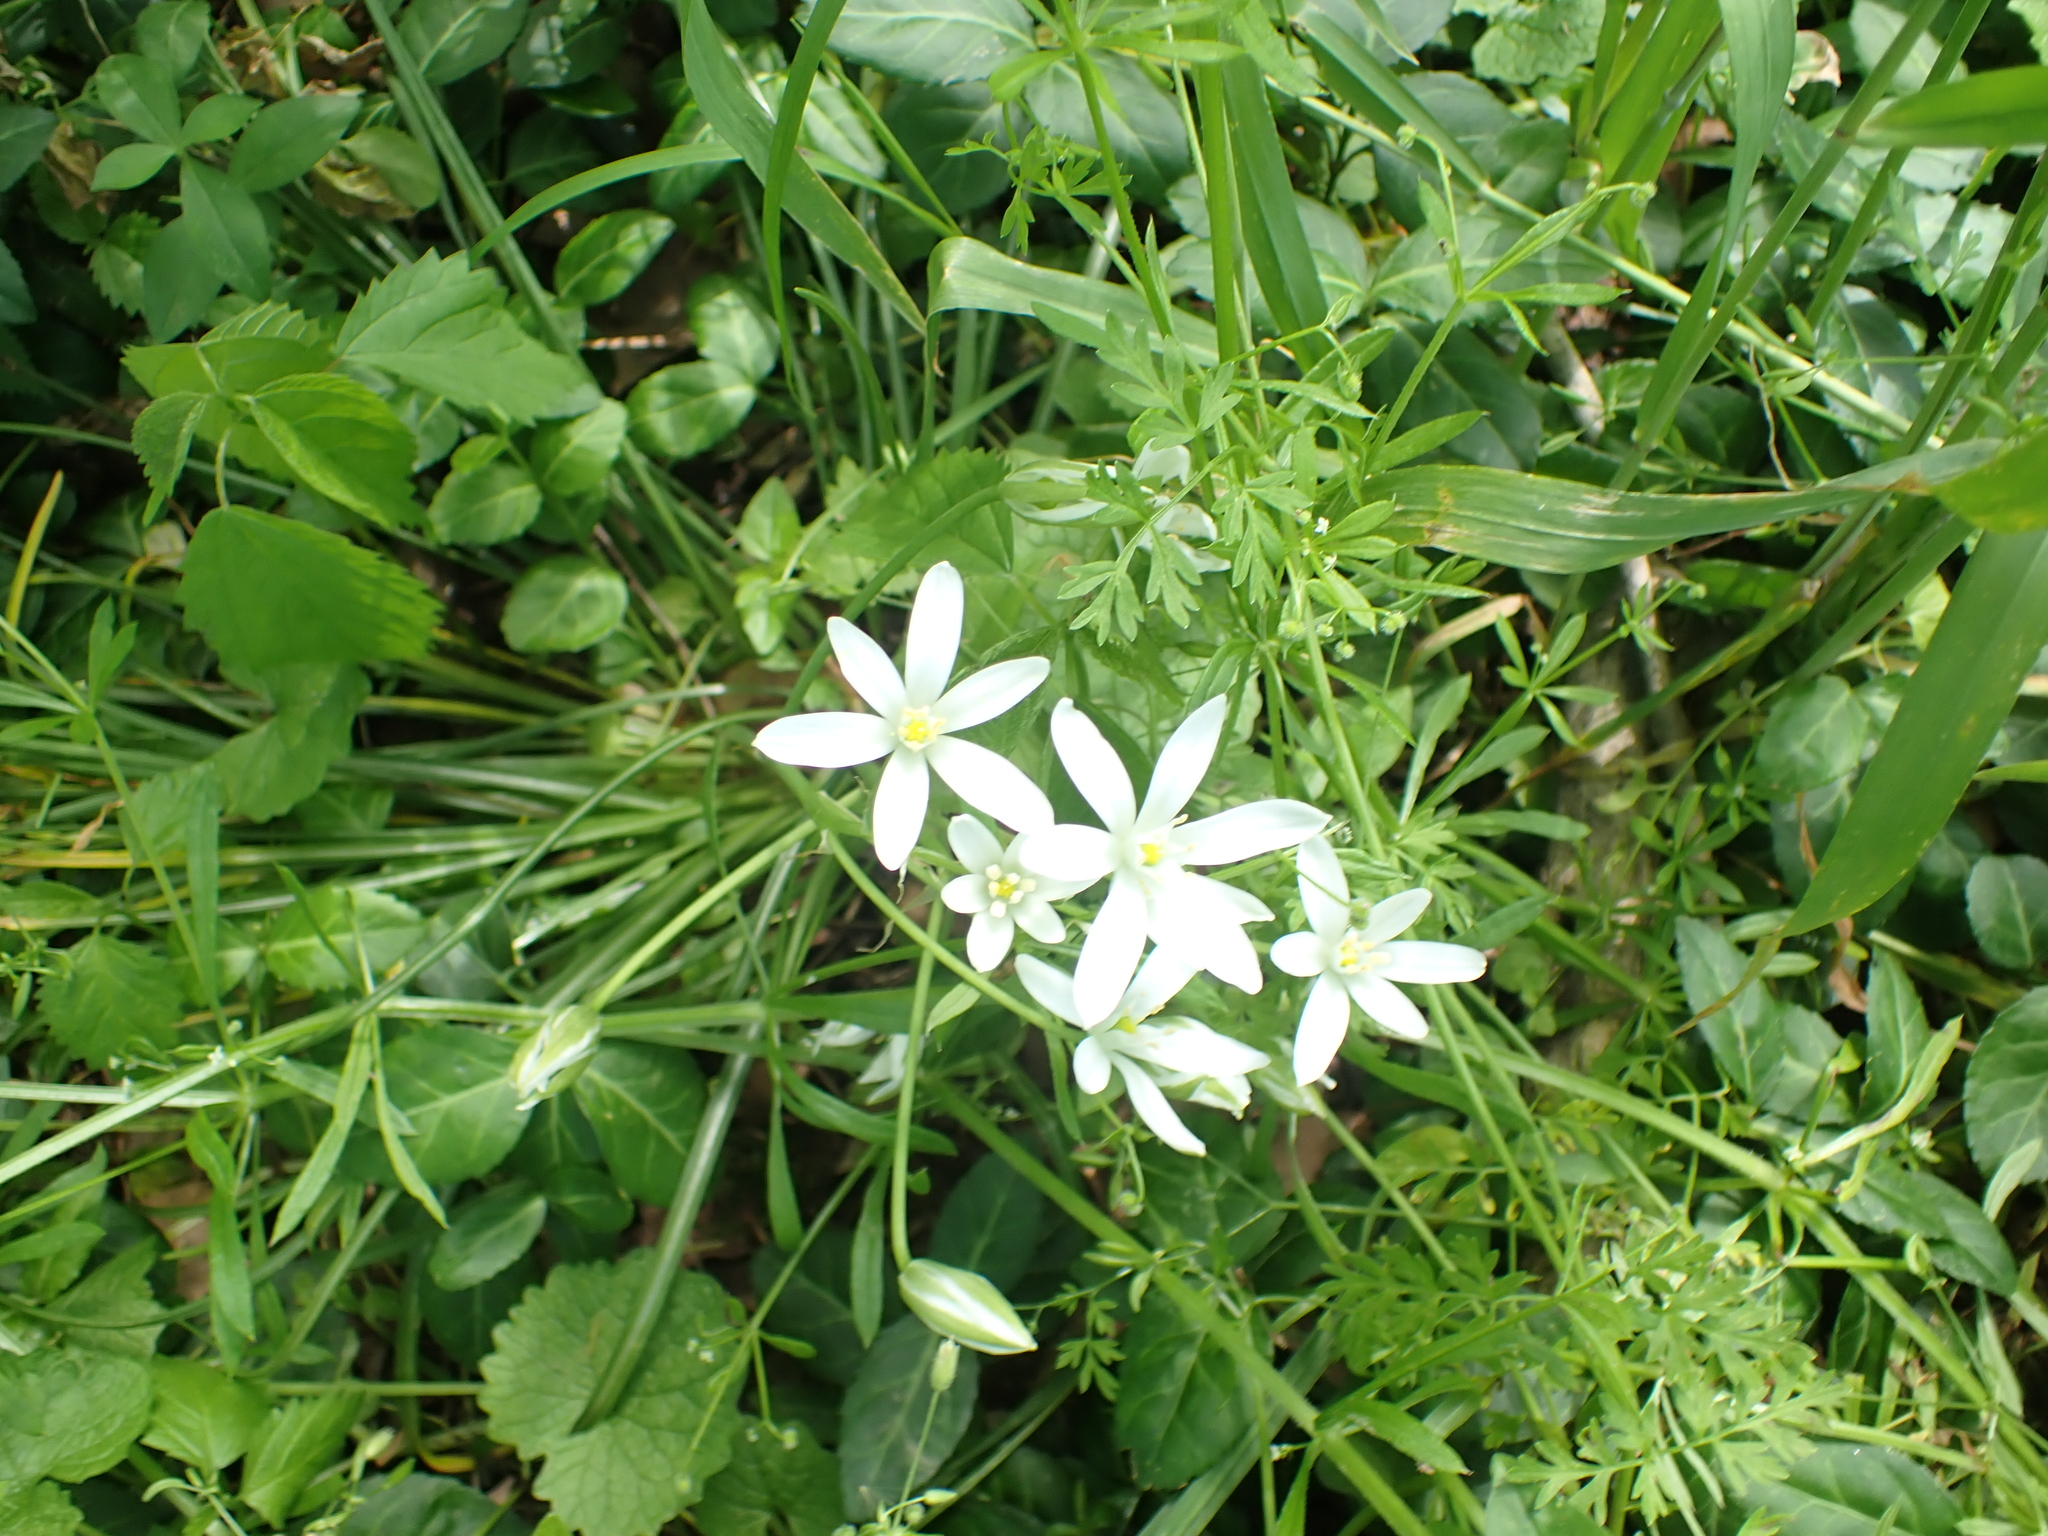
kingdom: Plantae
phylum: Tracheophyta
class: Liliopsida
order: Asparagales
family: Asparagaceae
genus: Ornithogalum
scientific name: Ornithogalum umbellatum
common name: Garden star-of-bethlehem
